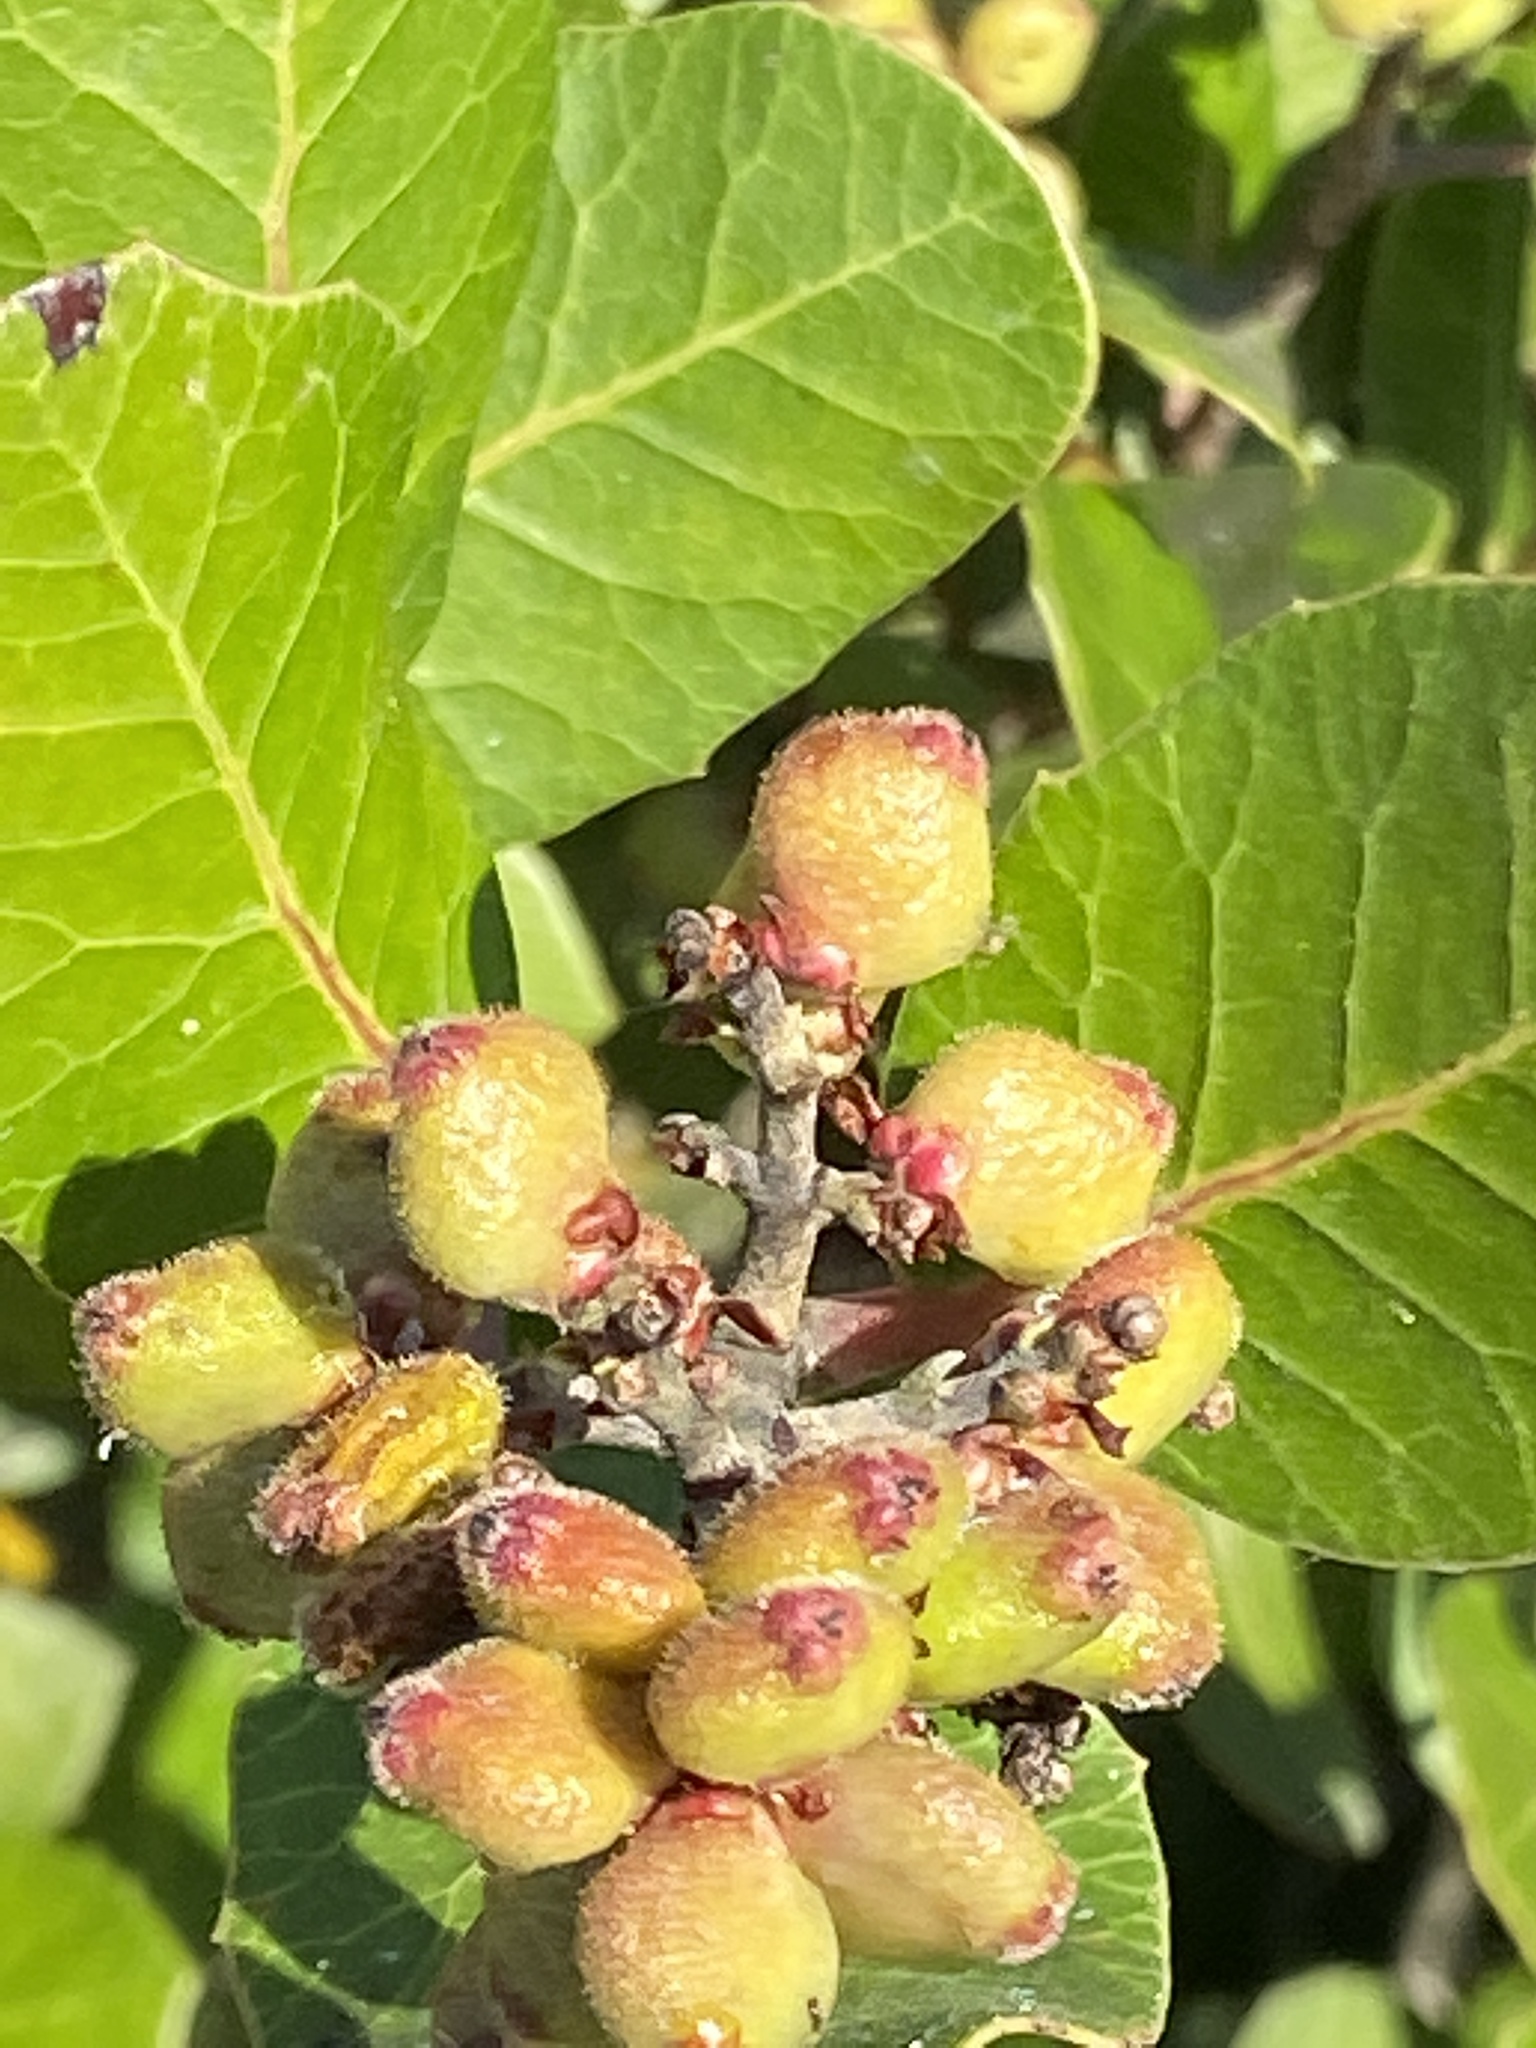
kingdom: Plantae
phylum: Tracheophyta
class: Magnoliopsida
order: Sapindales
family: Anacardiaceae
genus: Rhus
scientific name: Rhus integrifolia
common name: Lemonade sumac
